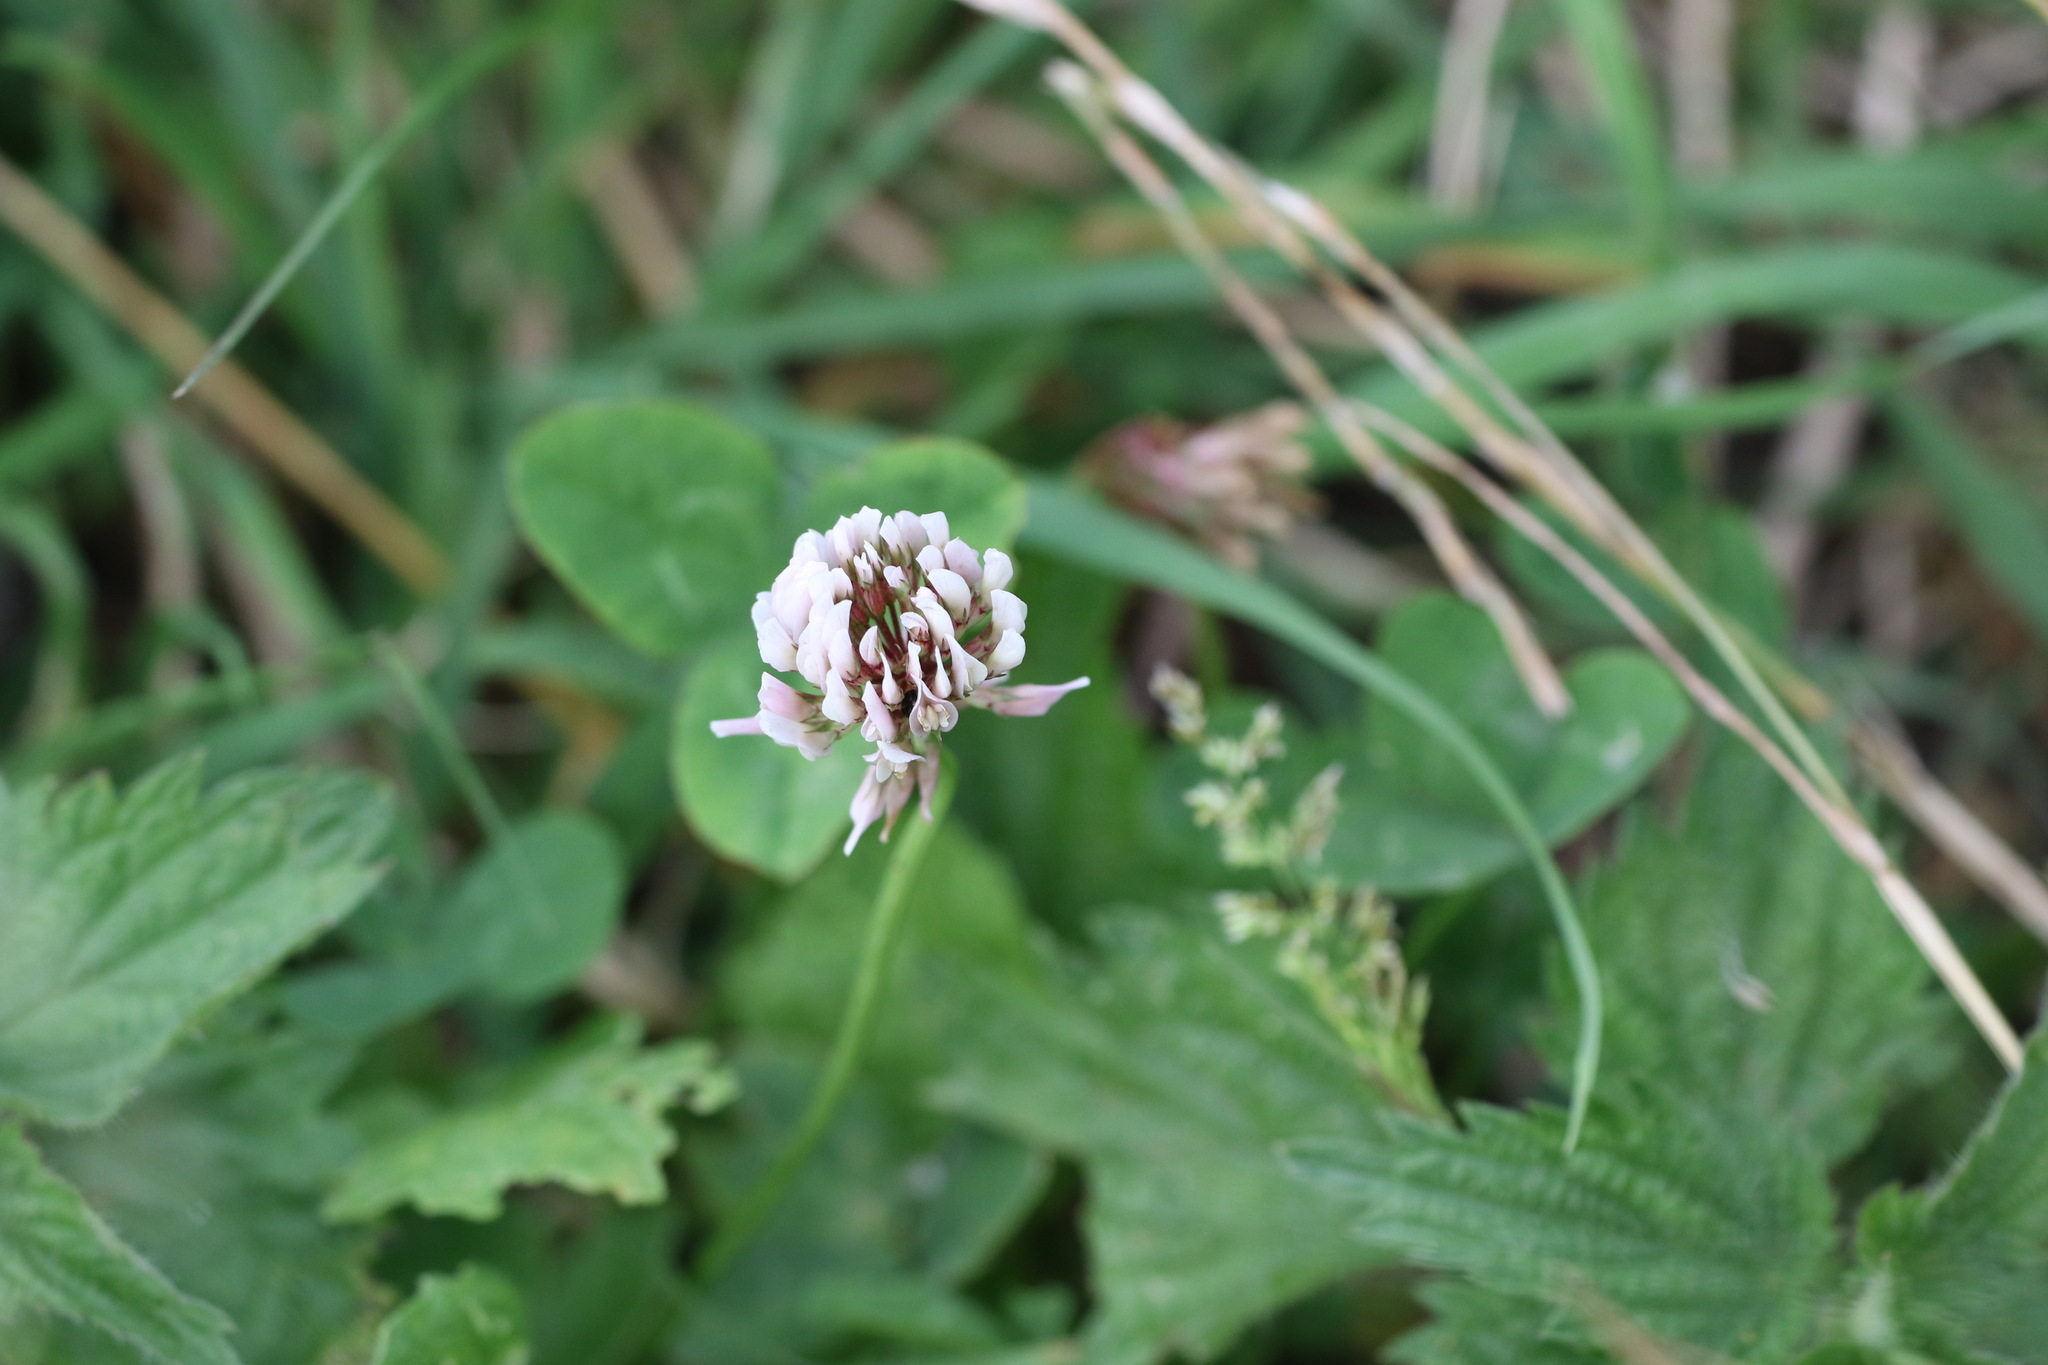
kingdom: Plantae
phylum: Tracheophyta
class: Magnoliopsida
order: Fabales
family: Fabaceae
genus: Trifolium
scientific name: Trifolium repens
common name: White clover
